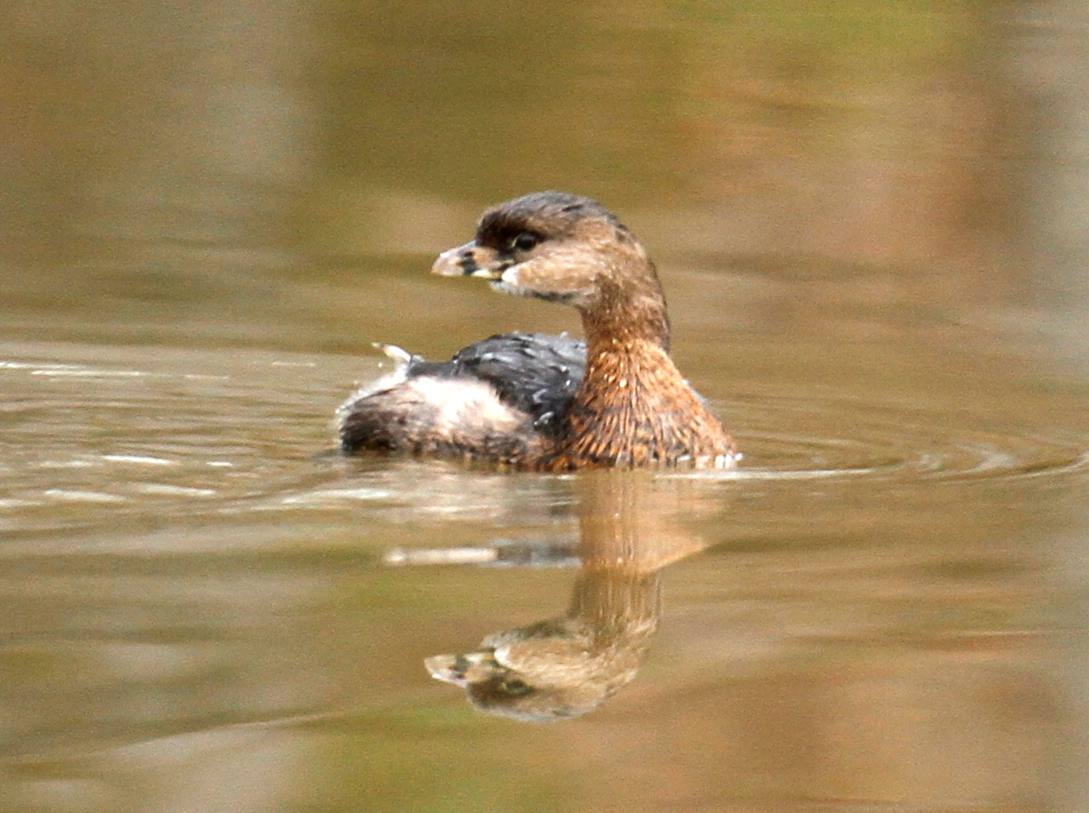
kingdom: Animalia
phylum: Chordata
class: Aves
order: Podicipediformes
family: Podicipedidae
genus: Podilymbus
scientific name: Podilymbus podiceps
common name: Pied-billed grebe
